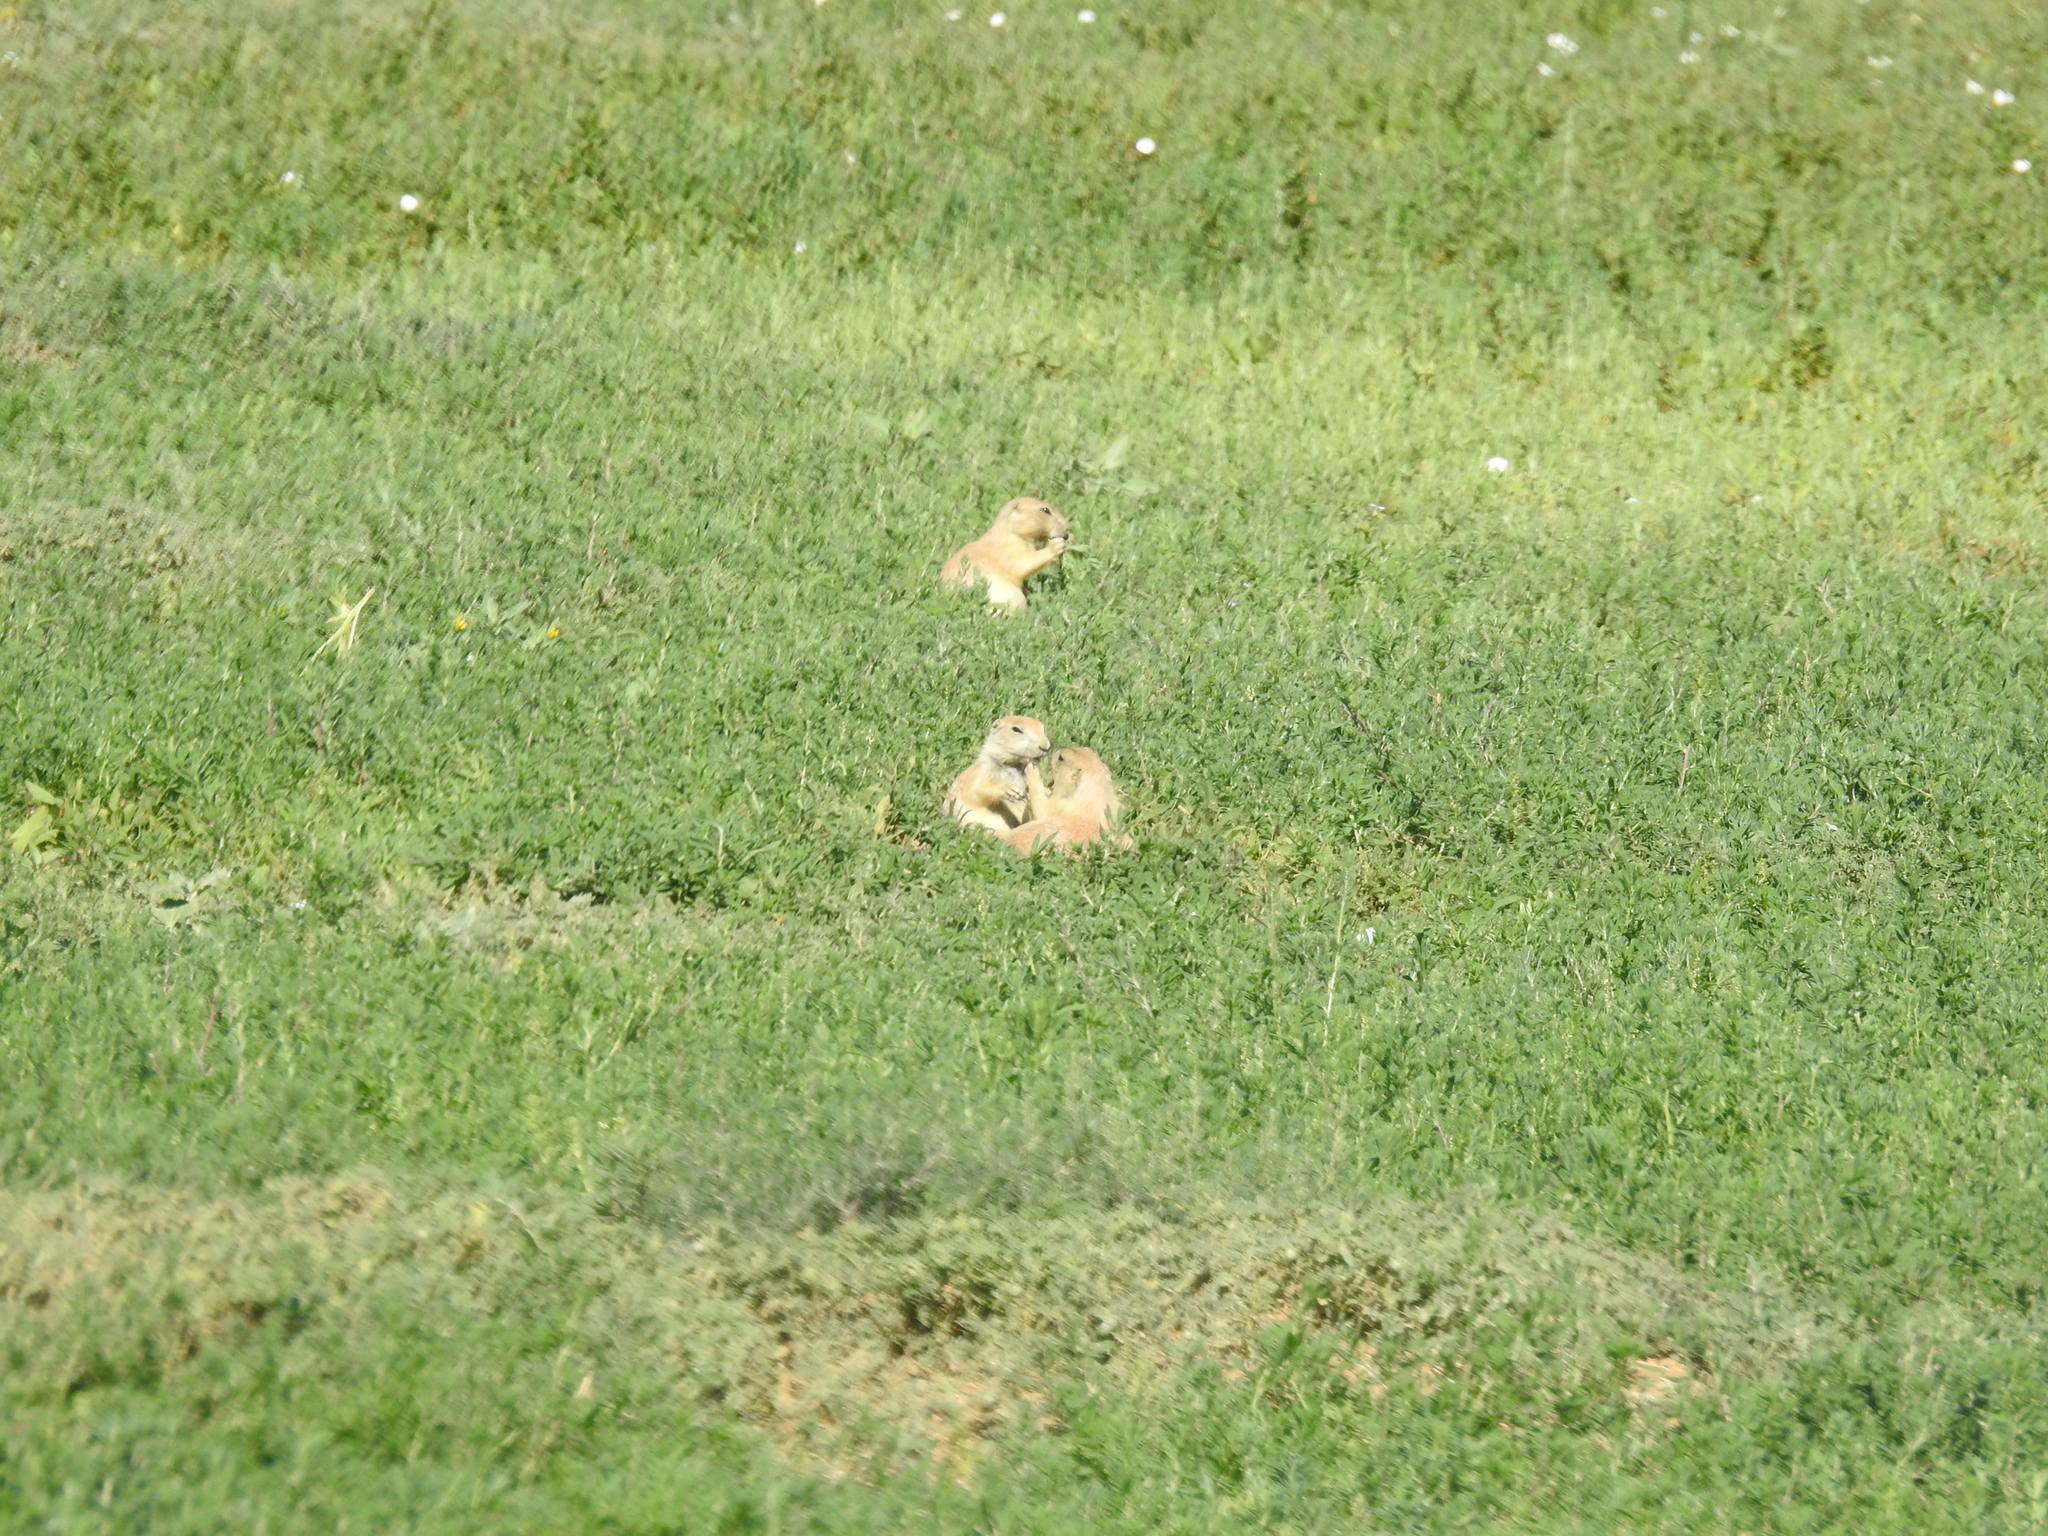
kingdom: Animalia
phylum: Chordata
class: Mammalia
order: Rodentia
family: Sciuridae
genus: Cynomys
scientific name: Cynomys ludovicianus
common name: Black-tailed prairie dog
